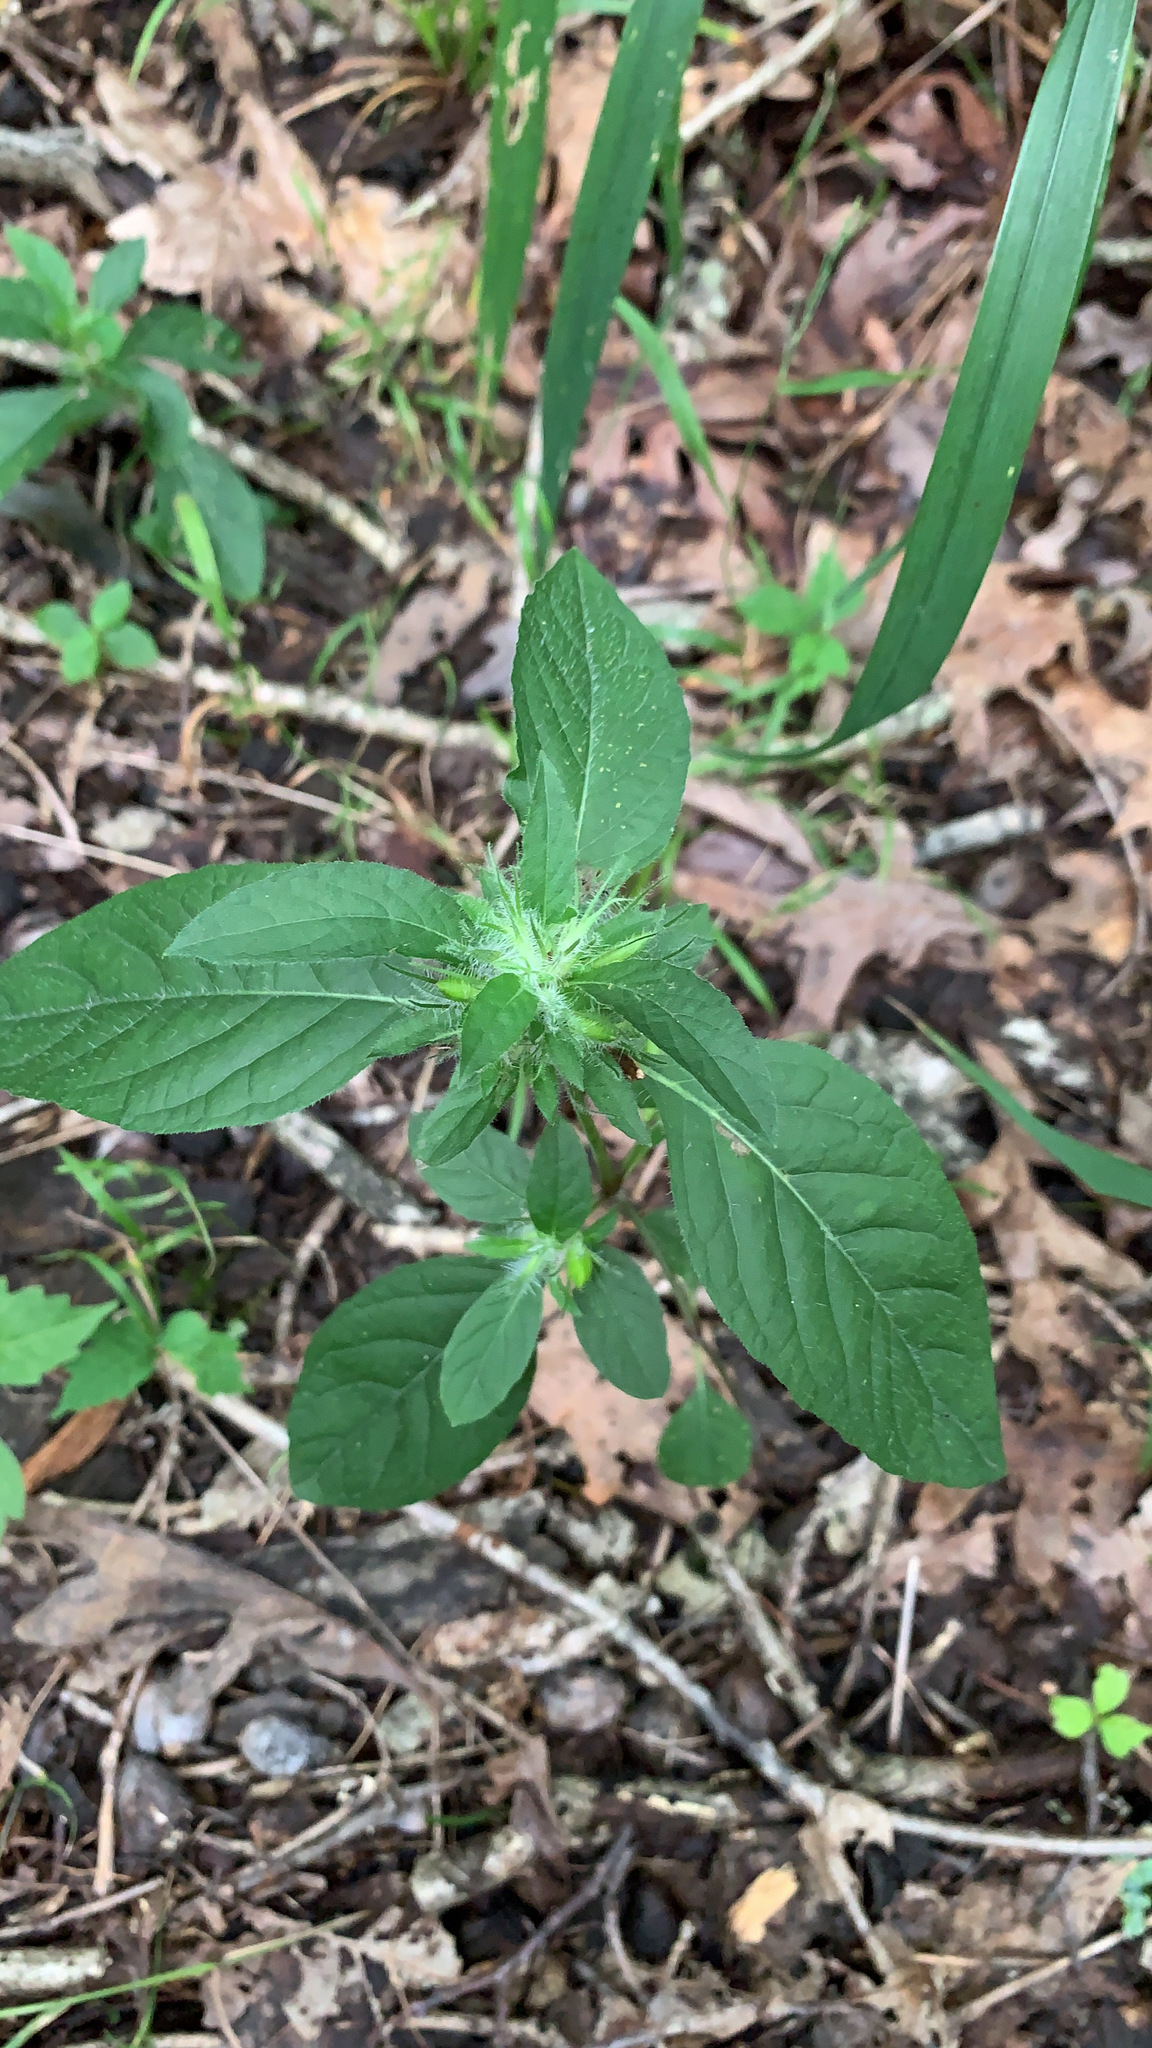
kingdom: Plantae
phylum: Tracheophyta
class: Magnoliopsida
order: Lamiales
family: Acanthaceae
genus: Ruellia
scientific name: Ruellia caroliniensis
